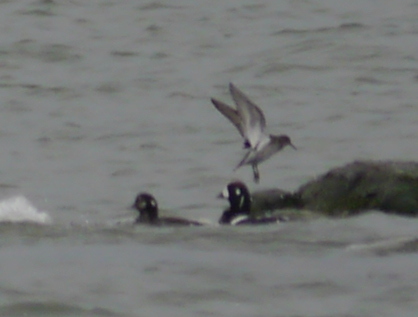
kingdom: Animalia
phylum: Chordata
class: Aves
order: Anseriformes
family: Anatidae
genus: Histrionicus
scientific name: Histrionicus histrionicus
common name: Harlequin duck
